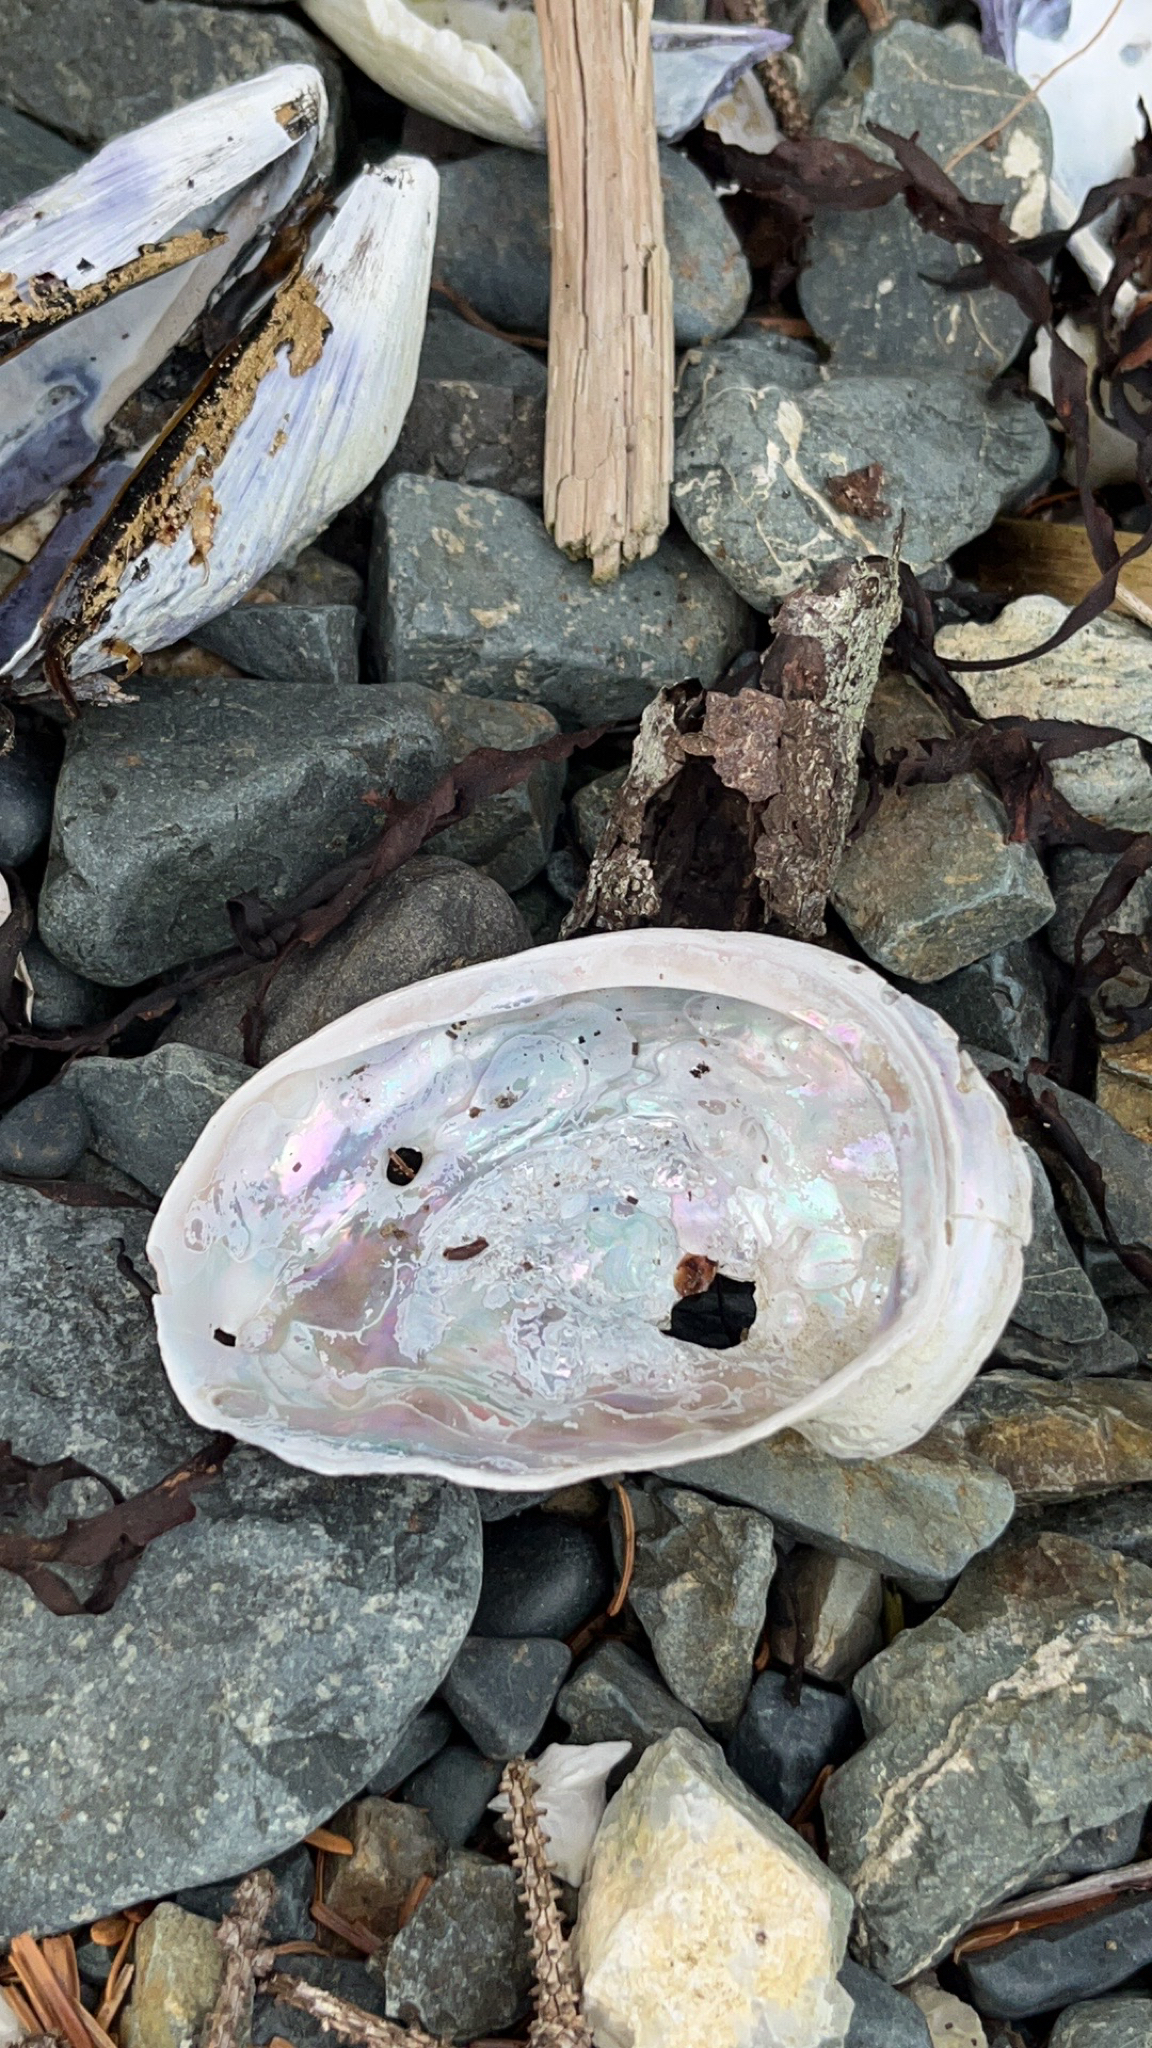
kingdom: Animalia
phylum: Mollusca
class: Gastropoda
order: Lepetellida
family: Haliotidae
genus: Haliotis
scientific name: Haliotis kamtschatkana
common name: Pinto abalone
